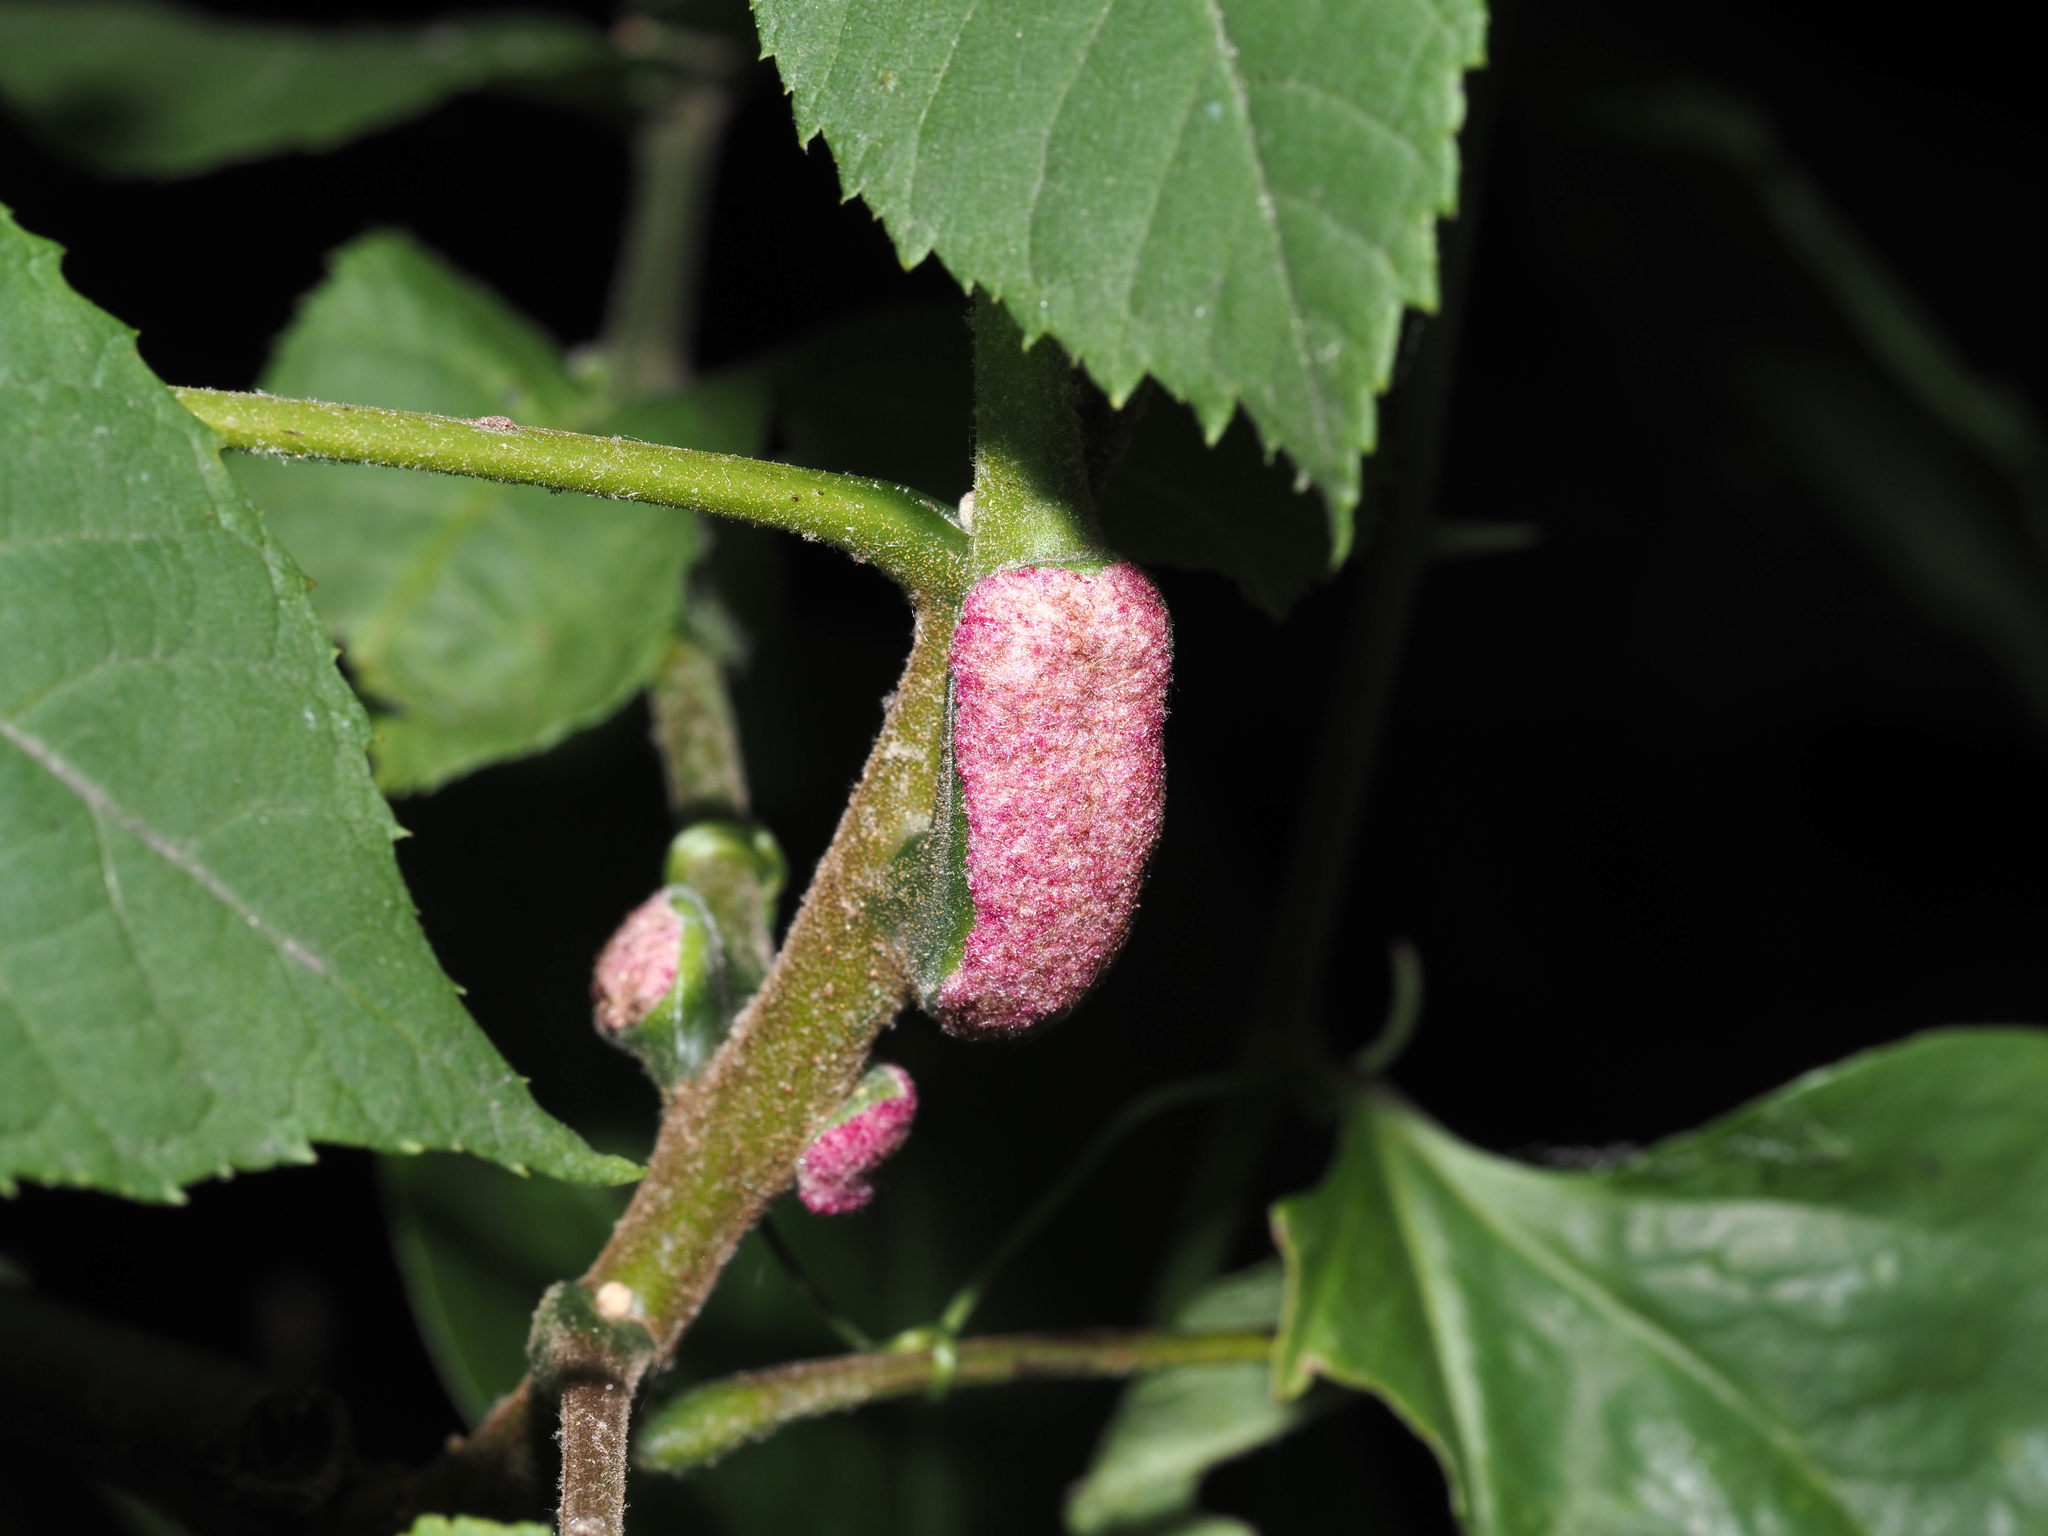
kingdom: Animalia
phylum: Arthropoda
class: Arachnida
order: Trombidiformes
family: Eriophyidae
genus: Aceria
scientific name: Aceria
